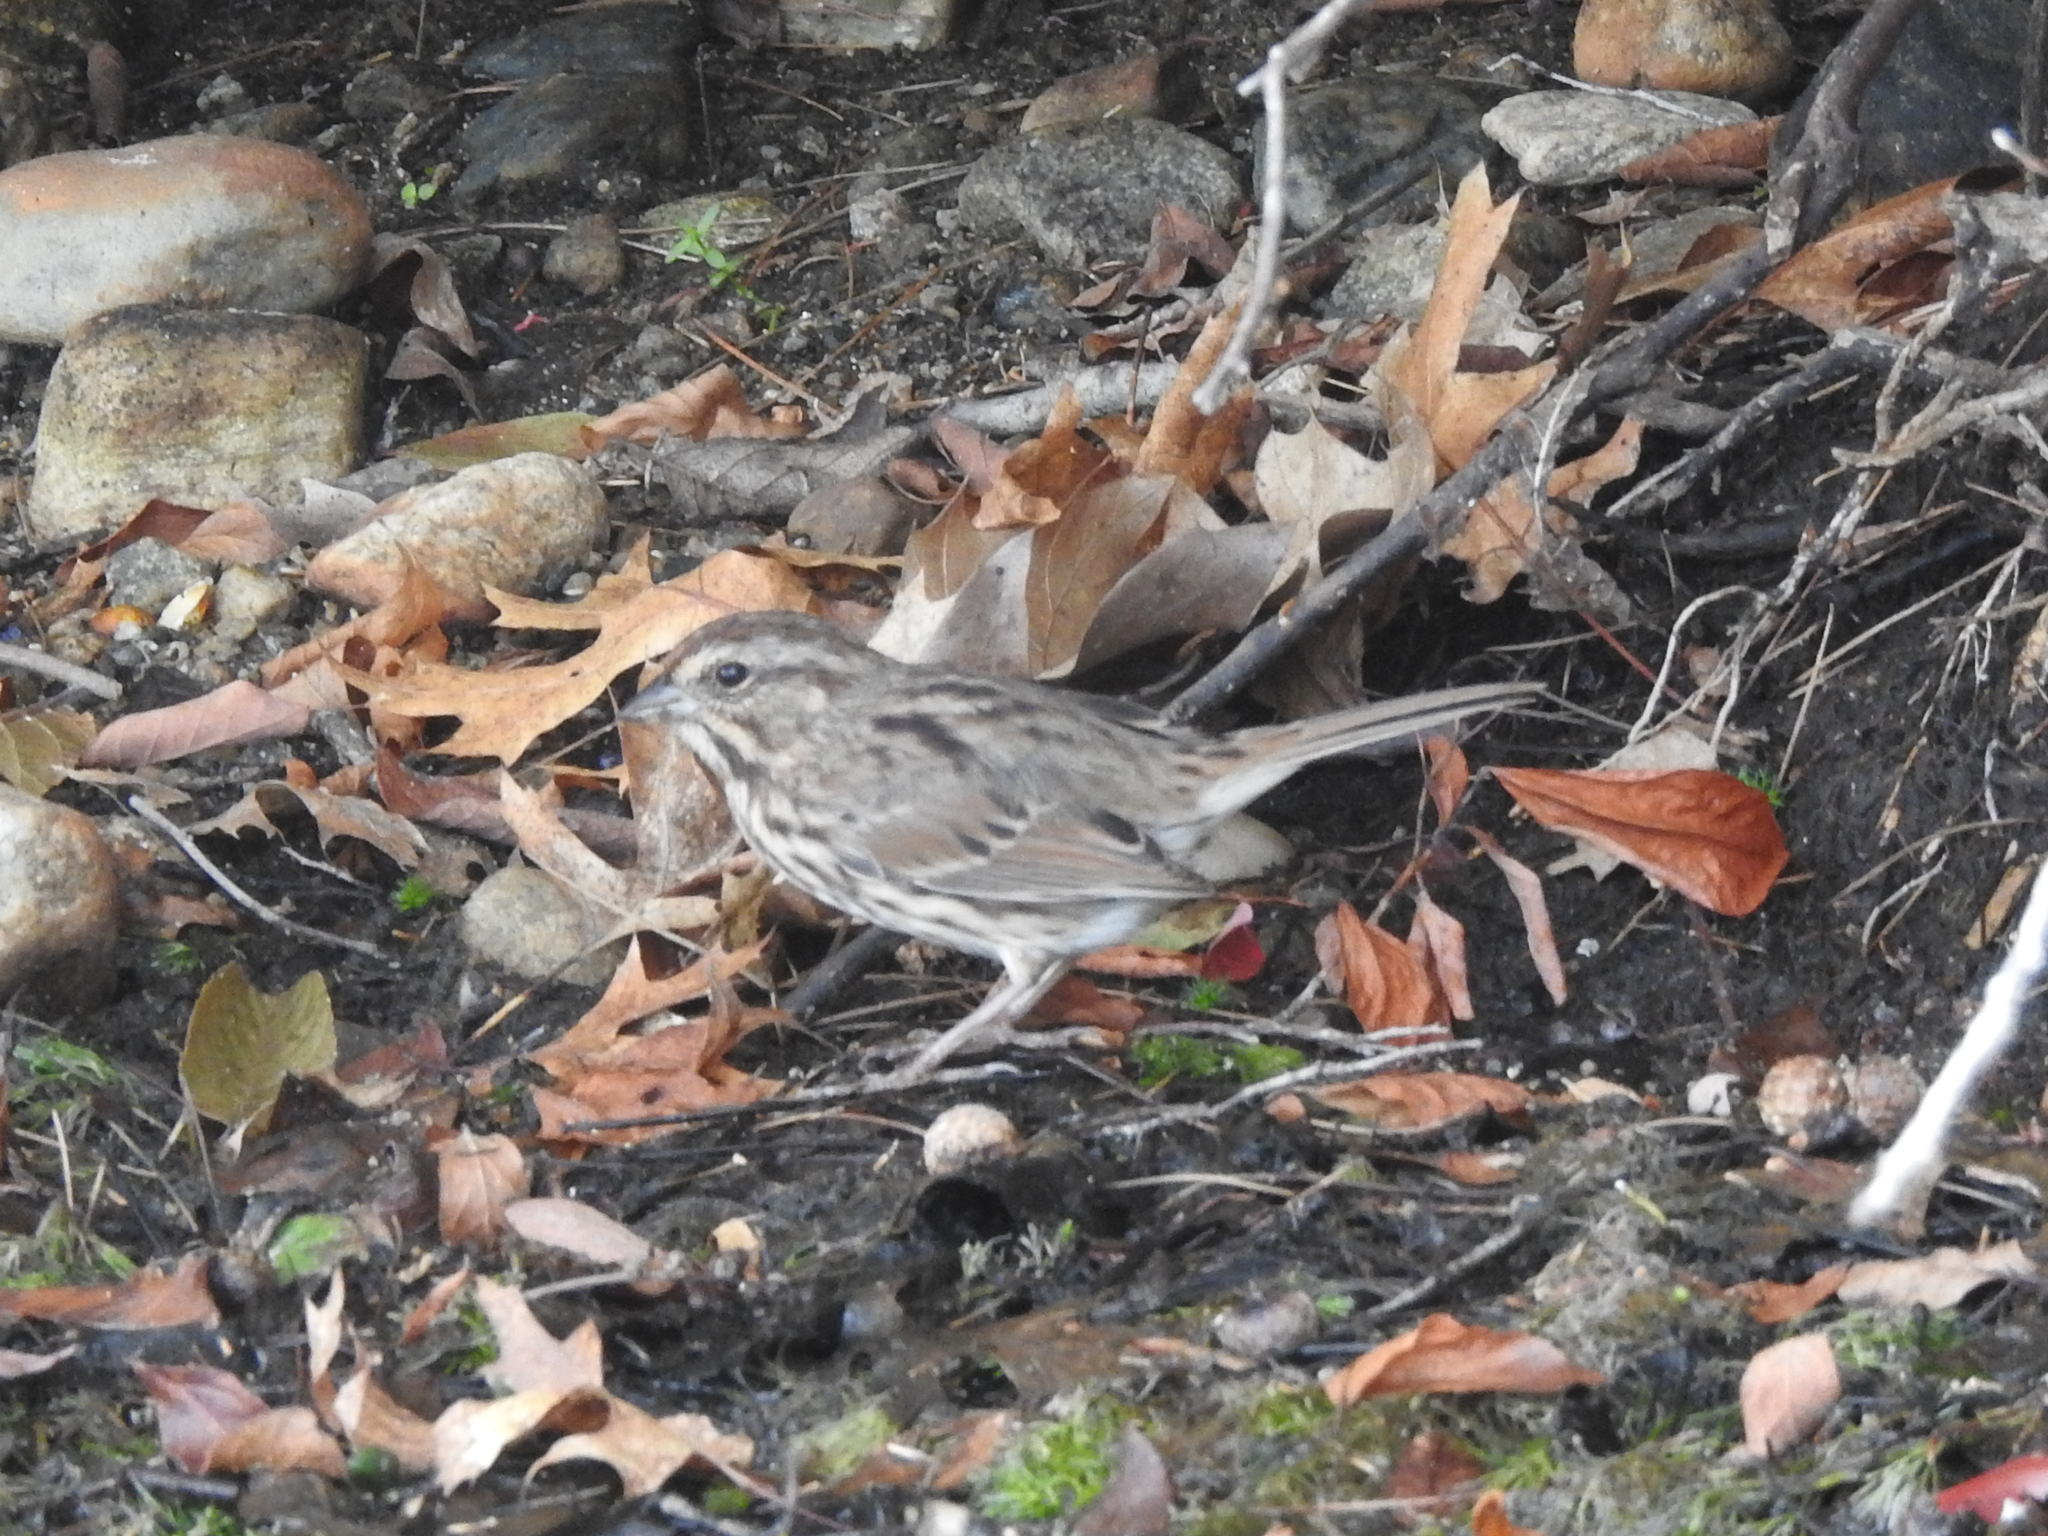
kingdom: Animalia
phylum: Chordata
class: Aves
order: Passeriformes
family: Passerellidae
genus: Melospiza
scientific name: Melospiza melodia
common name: Song sparrow
